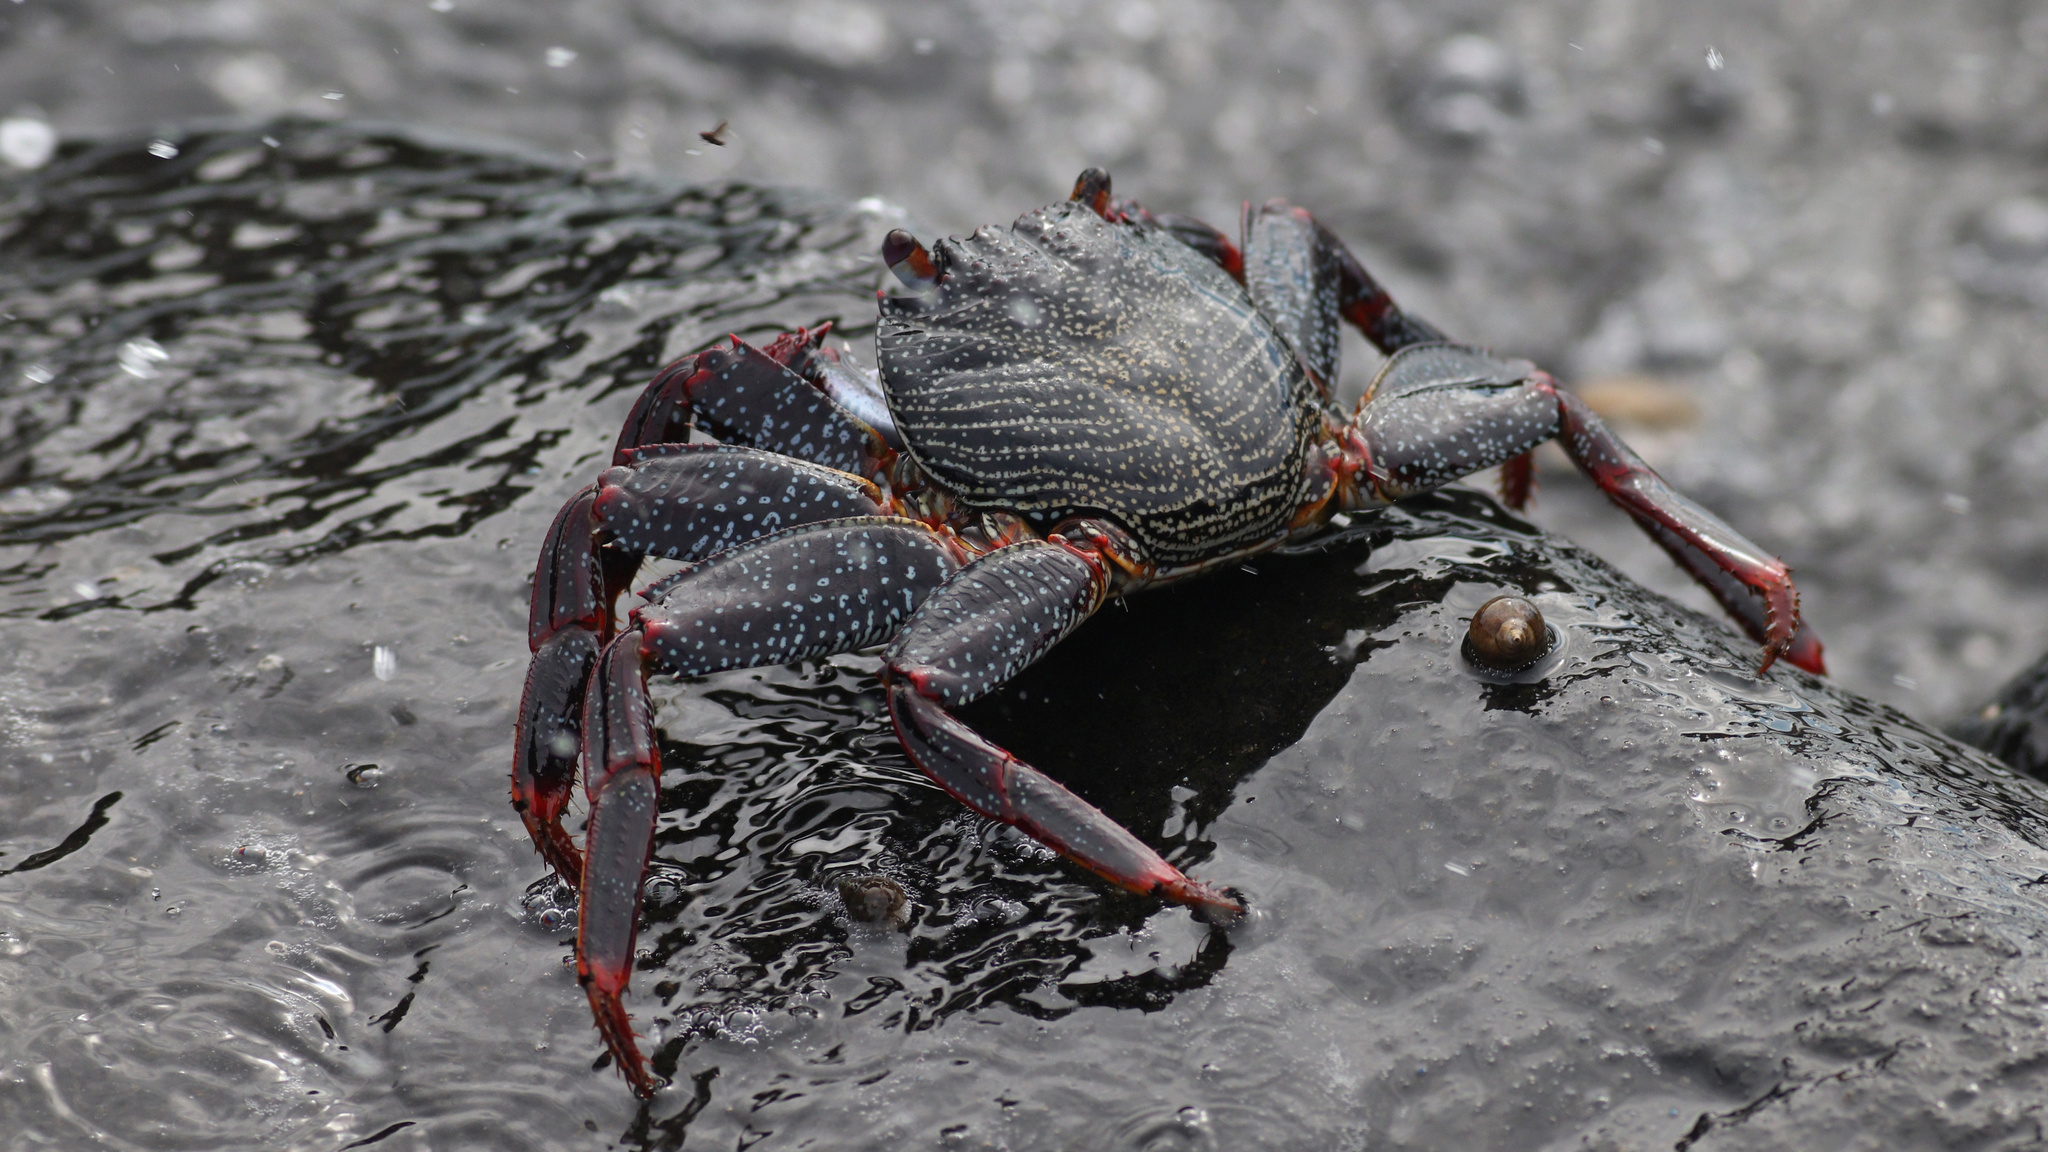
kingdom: Animalia
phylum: Arthropoda
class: Malacostraca
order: Decapoda
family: Grapsidae
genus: Grapsus
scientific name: Grapsus adscensionis
